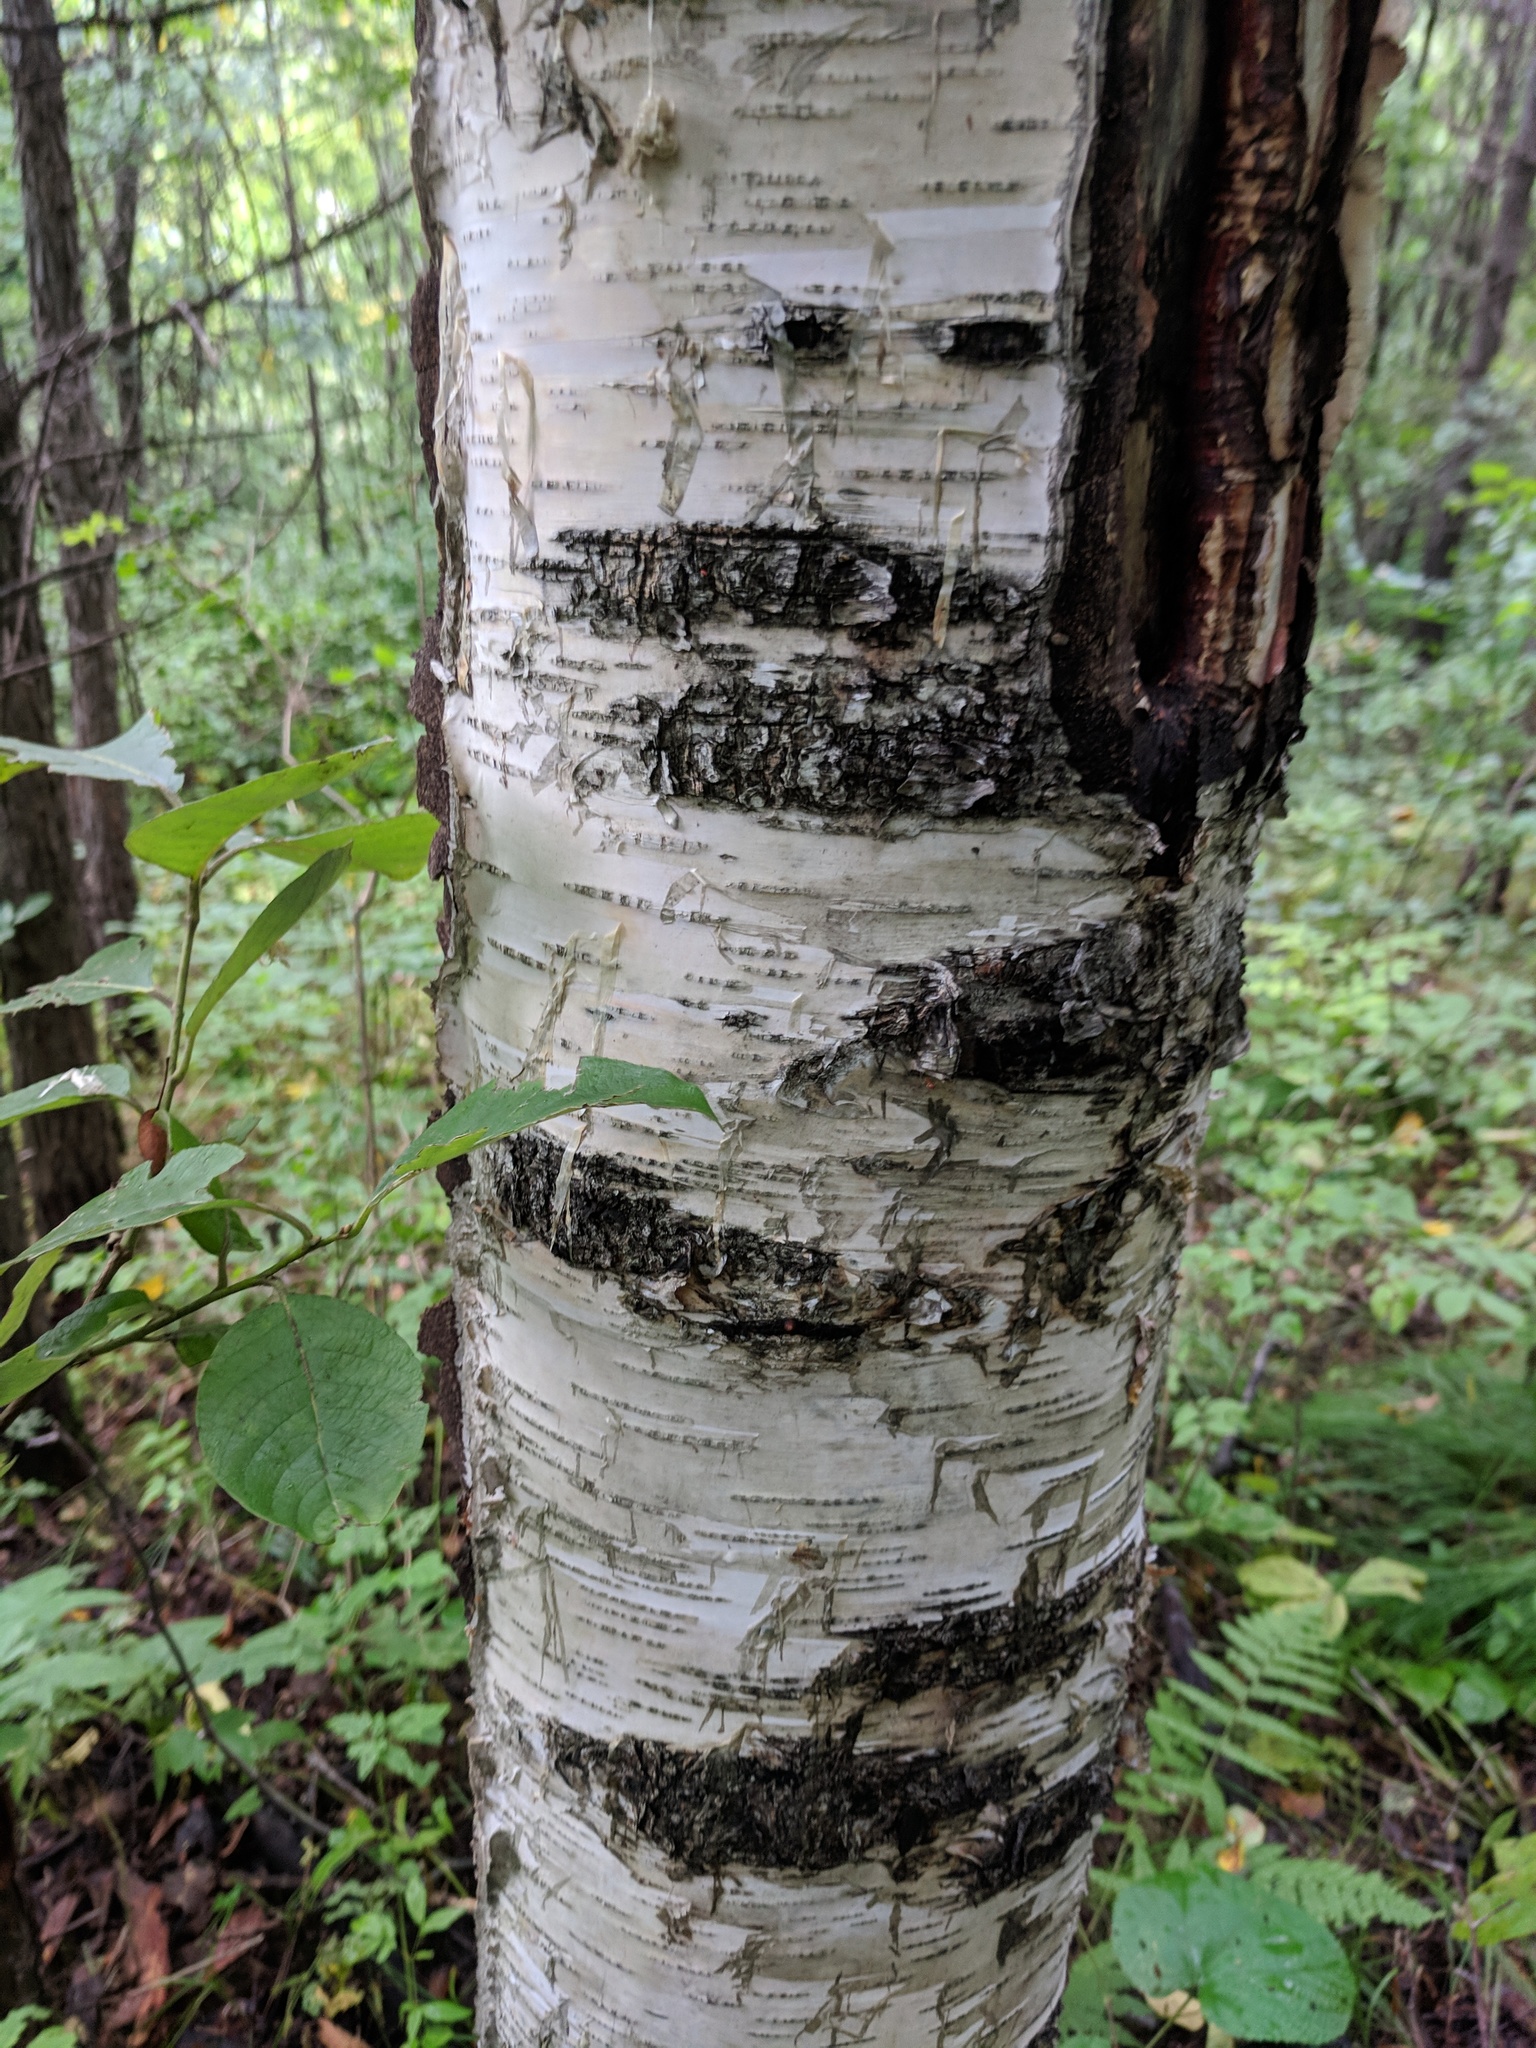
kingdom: Plantae
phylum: Tracheophyta
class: Magnoliopsida
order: Fagales
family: Betulaceae
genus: Betula
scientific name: Betula pendula
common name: Silver birch
